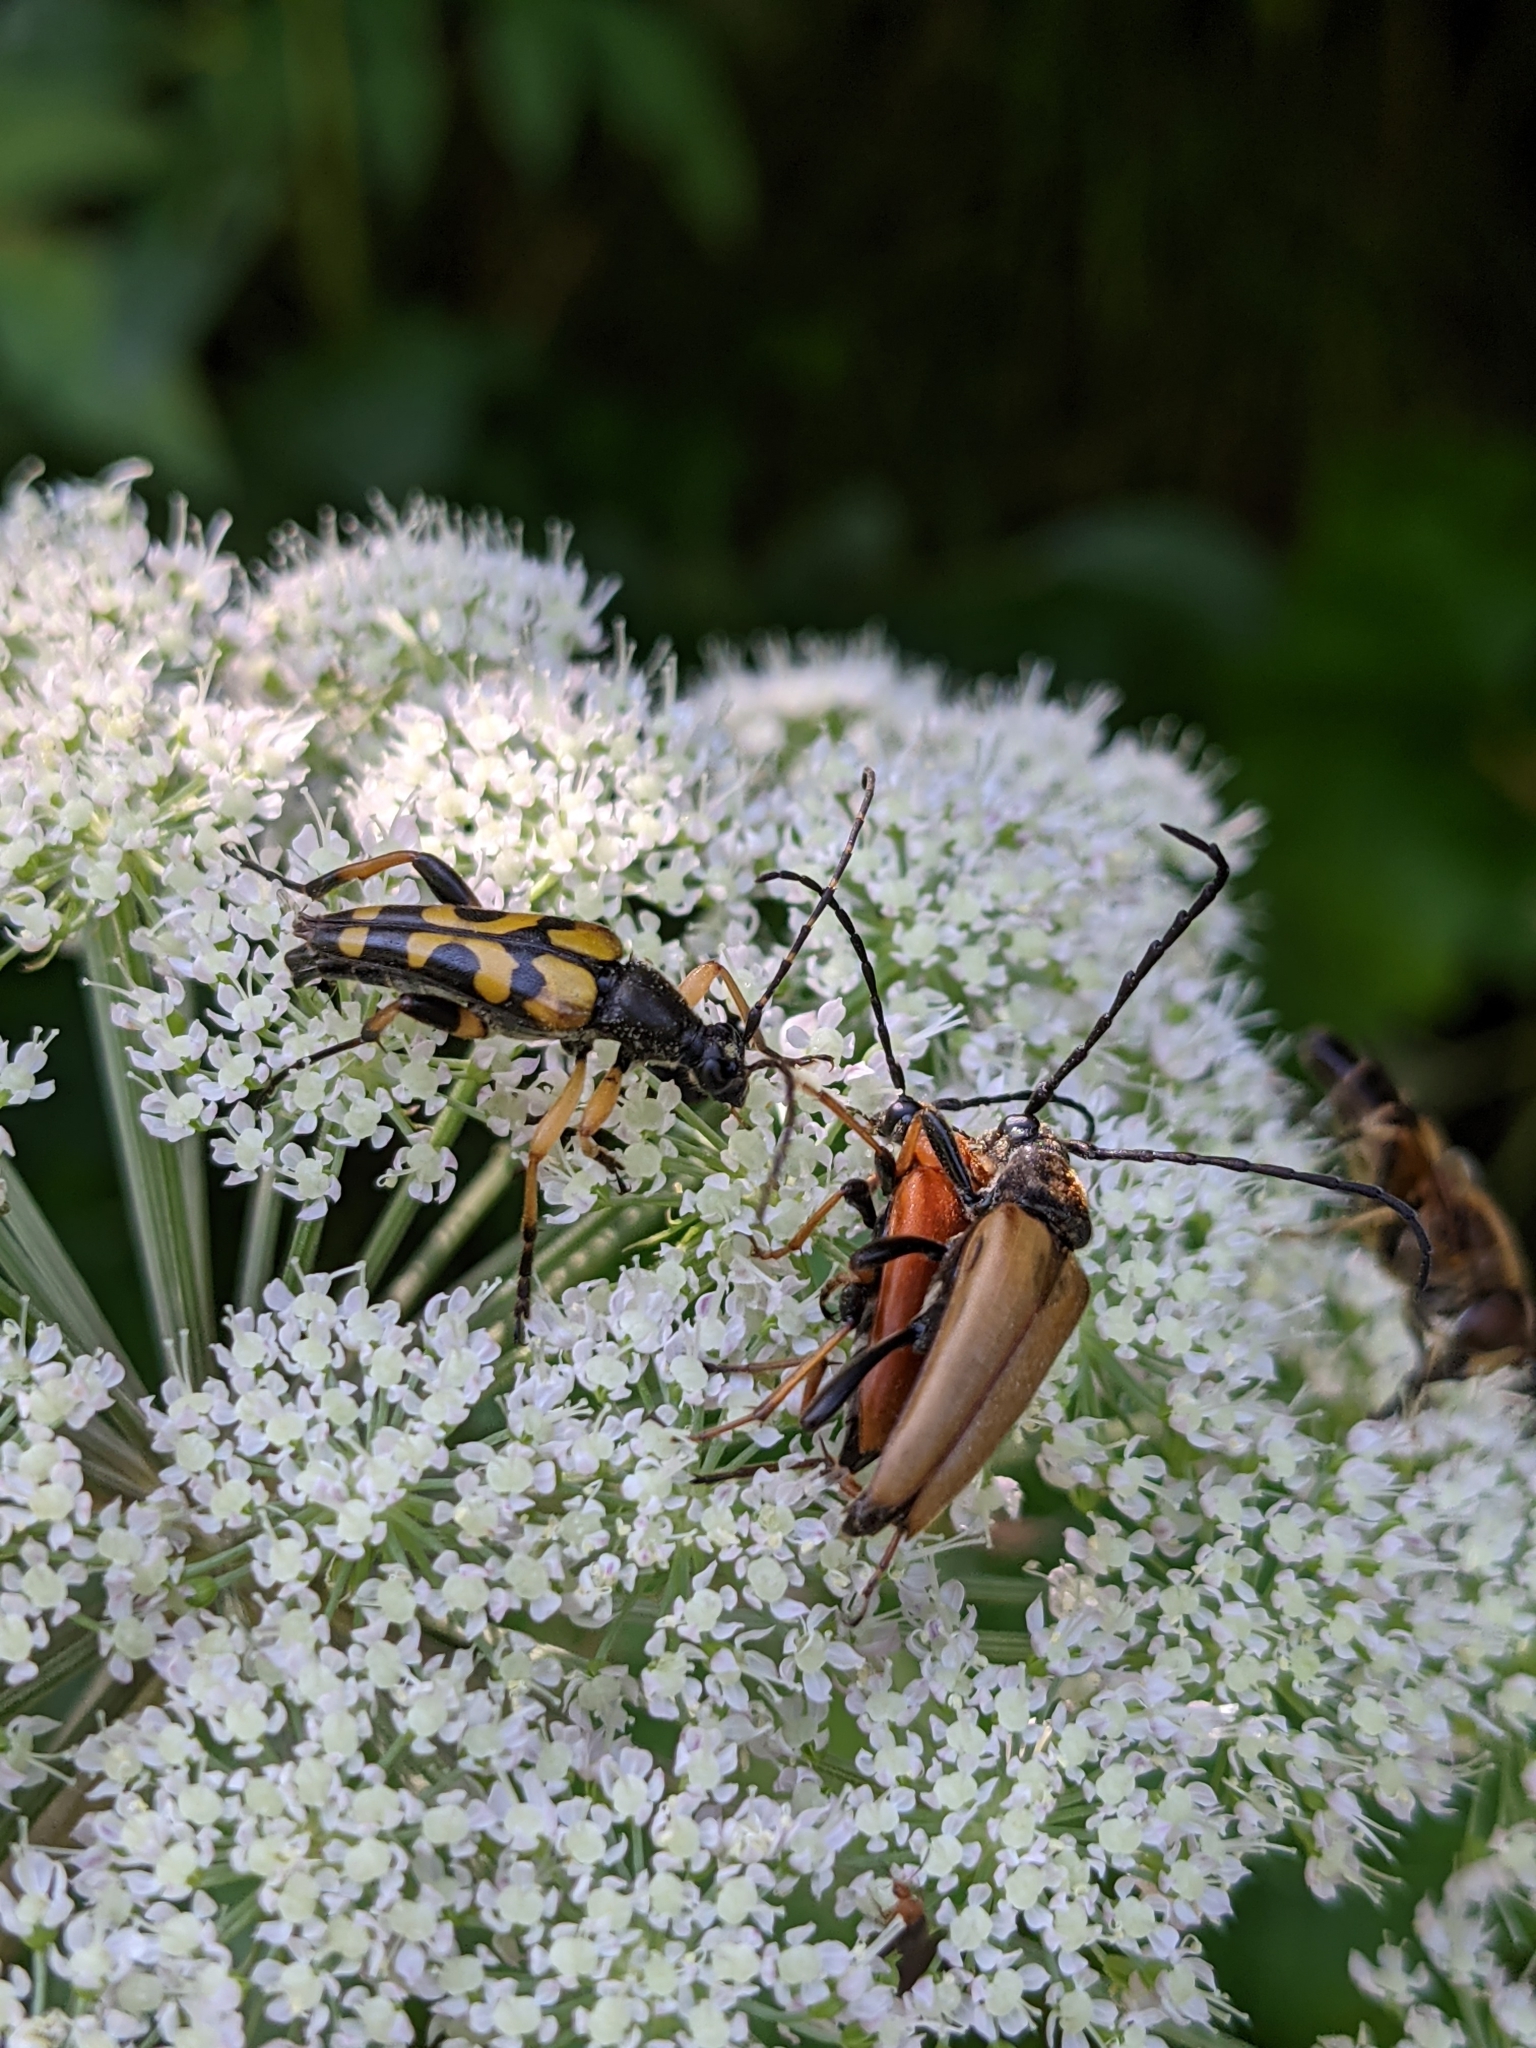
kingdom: Animalia
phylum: Arthropoda
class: Insecta
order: Coleoptera
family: Cerambycidae
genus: Rutpela
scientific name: Rutpela maculata
